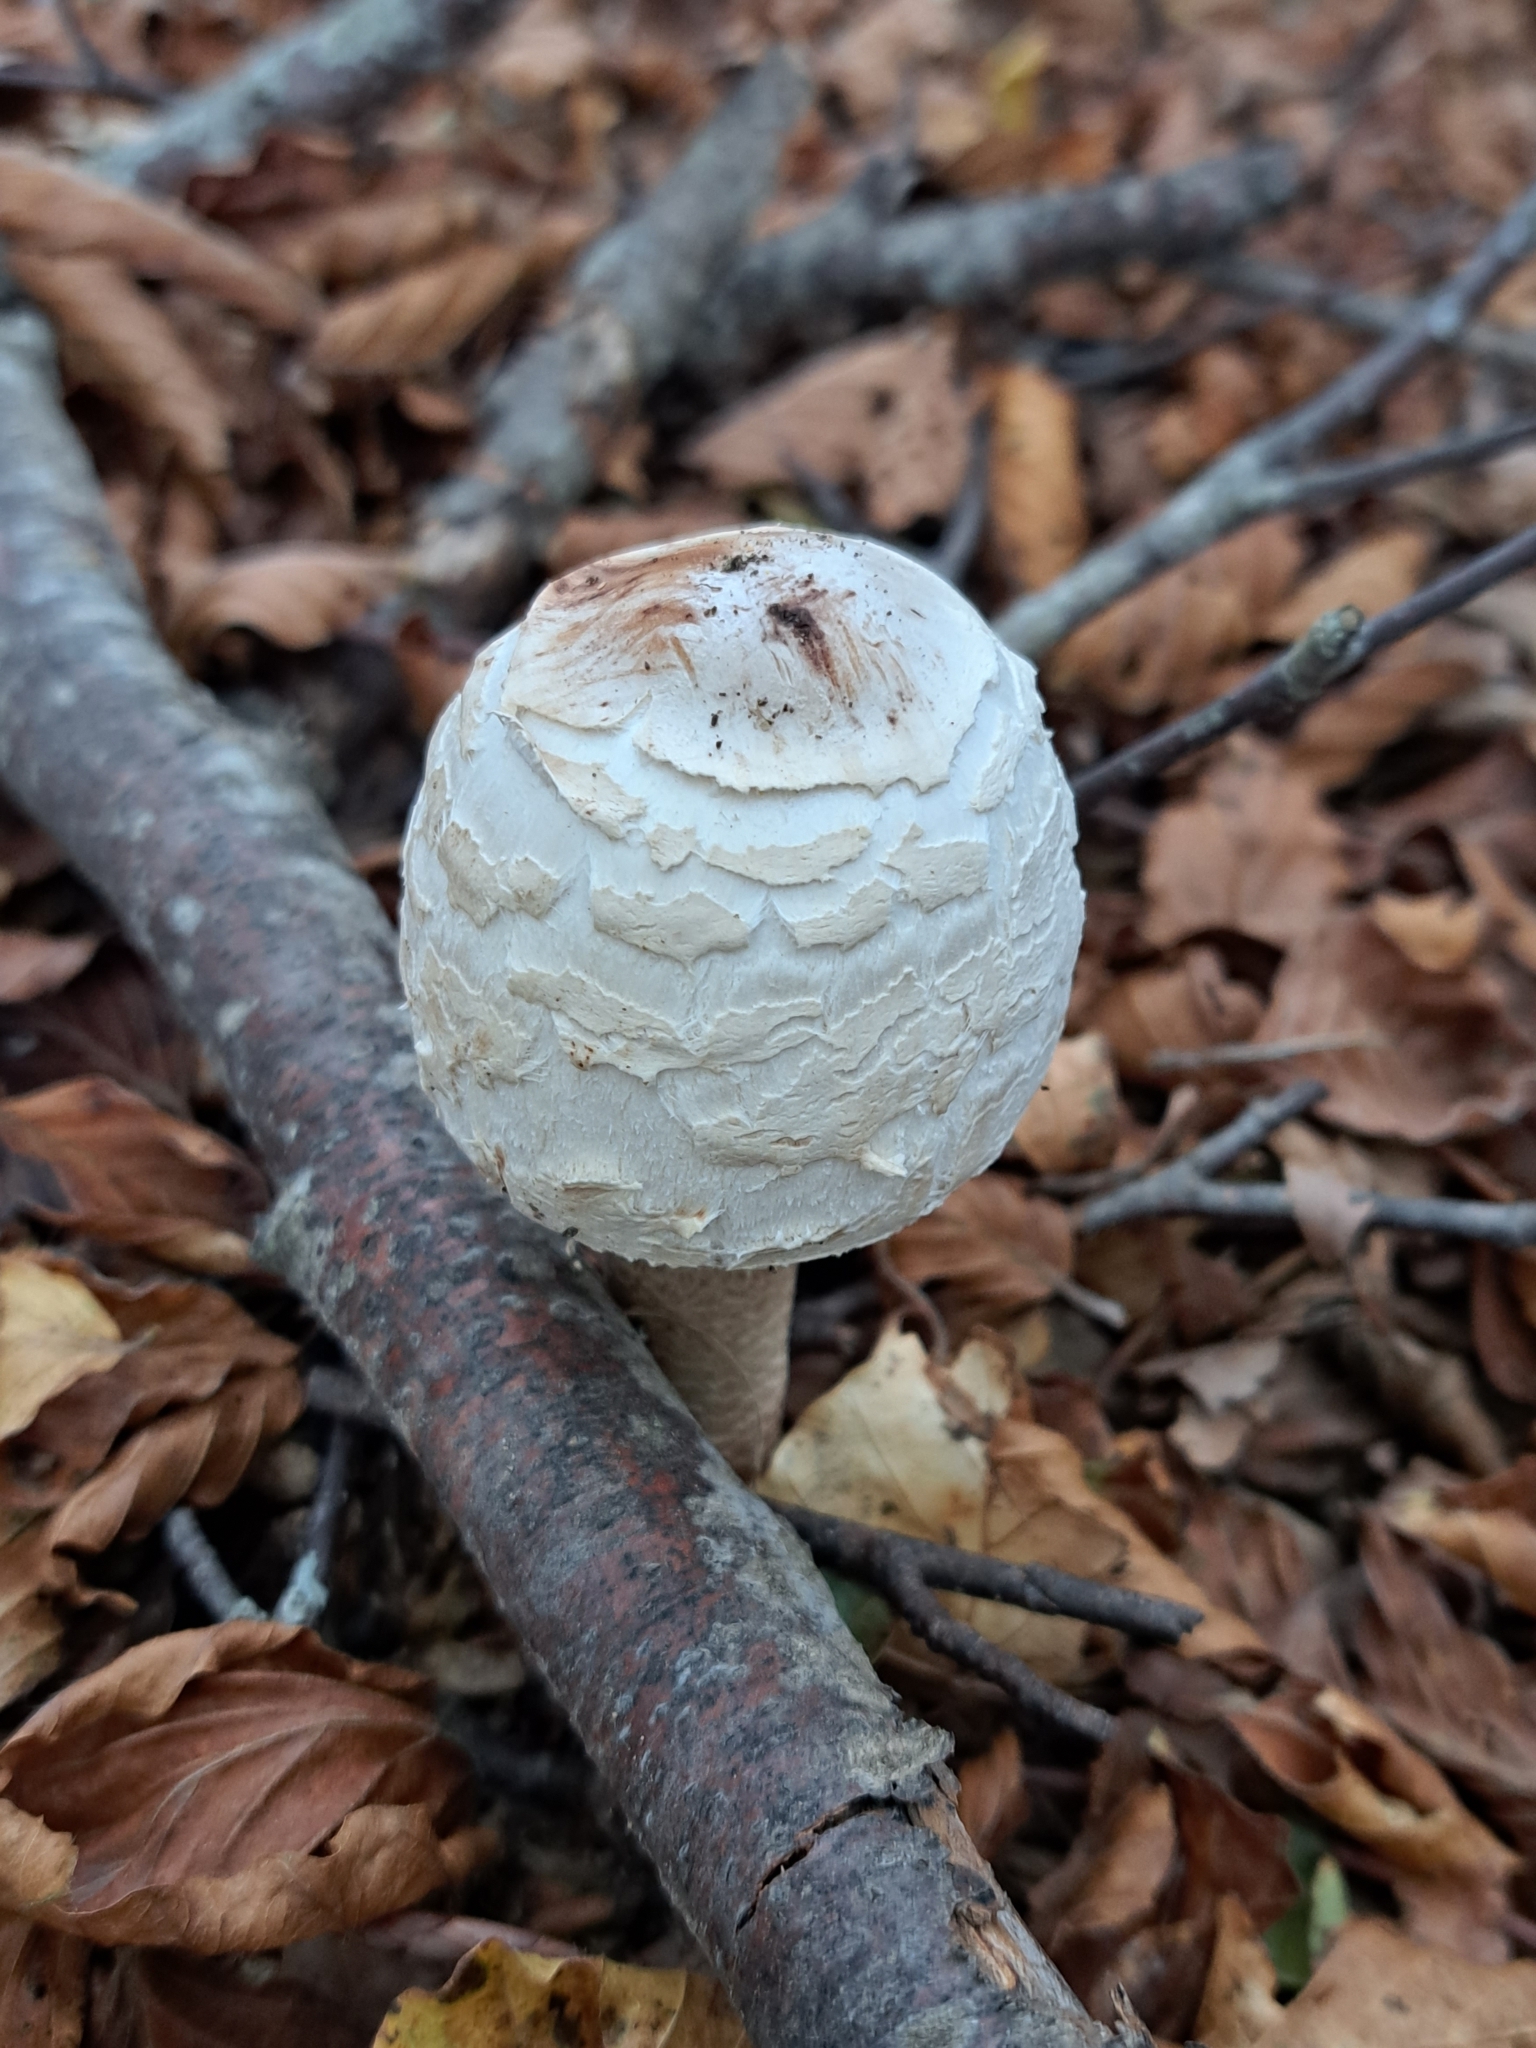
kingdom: Fungi
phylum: Basidiomycota
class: Agaricomycetes
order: Agaricales
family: Agaricaceae
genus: Chlorophyllum
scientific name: Chlorophyllum olivieri
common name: Conifer parasol
